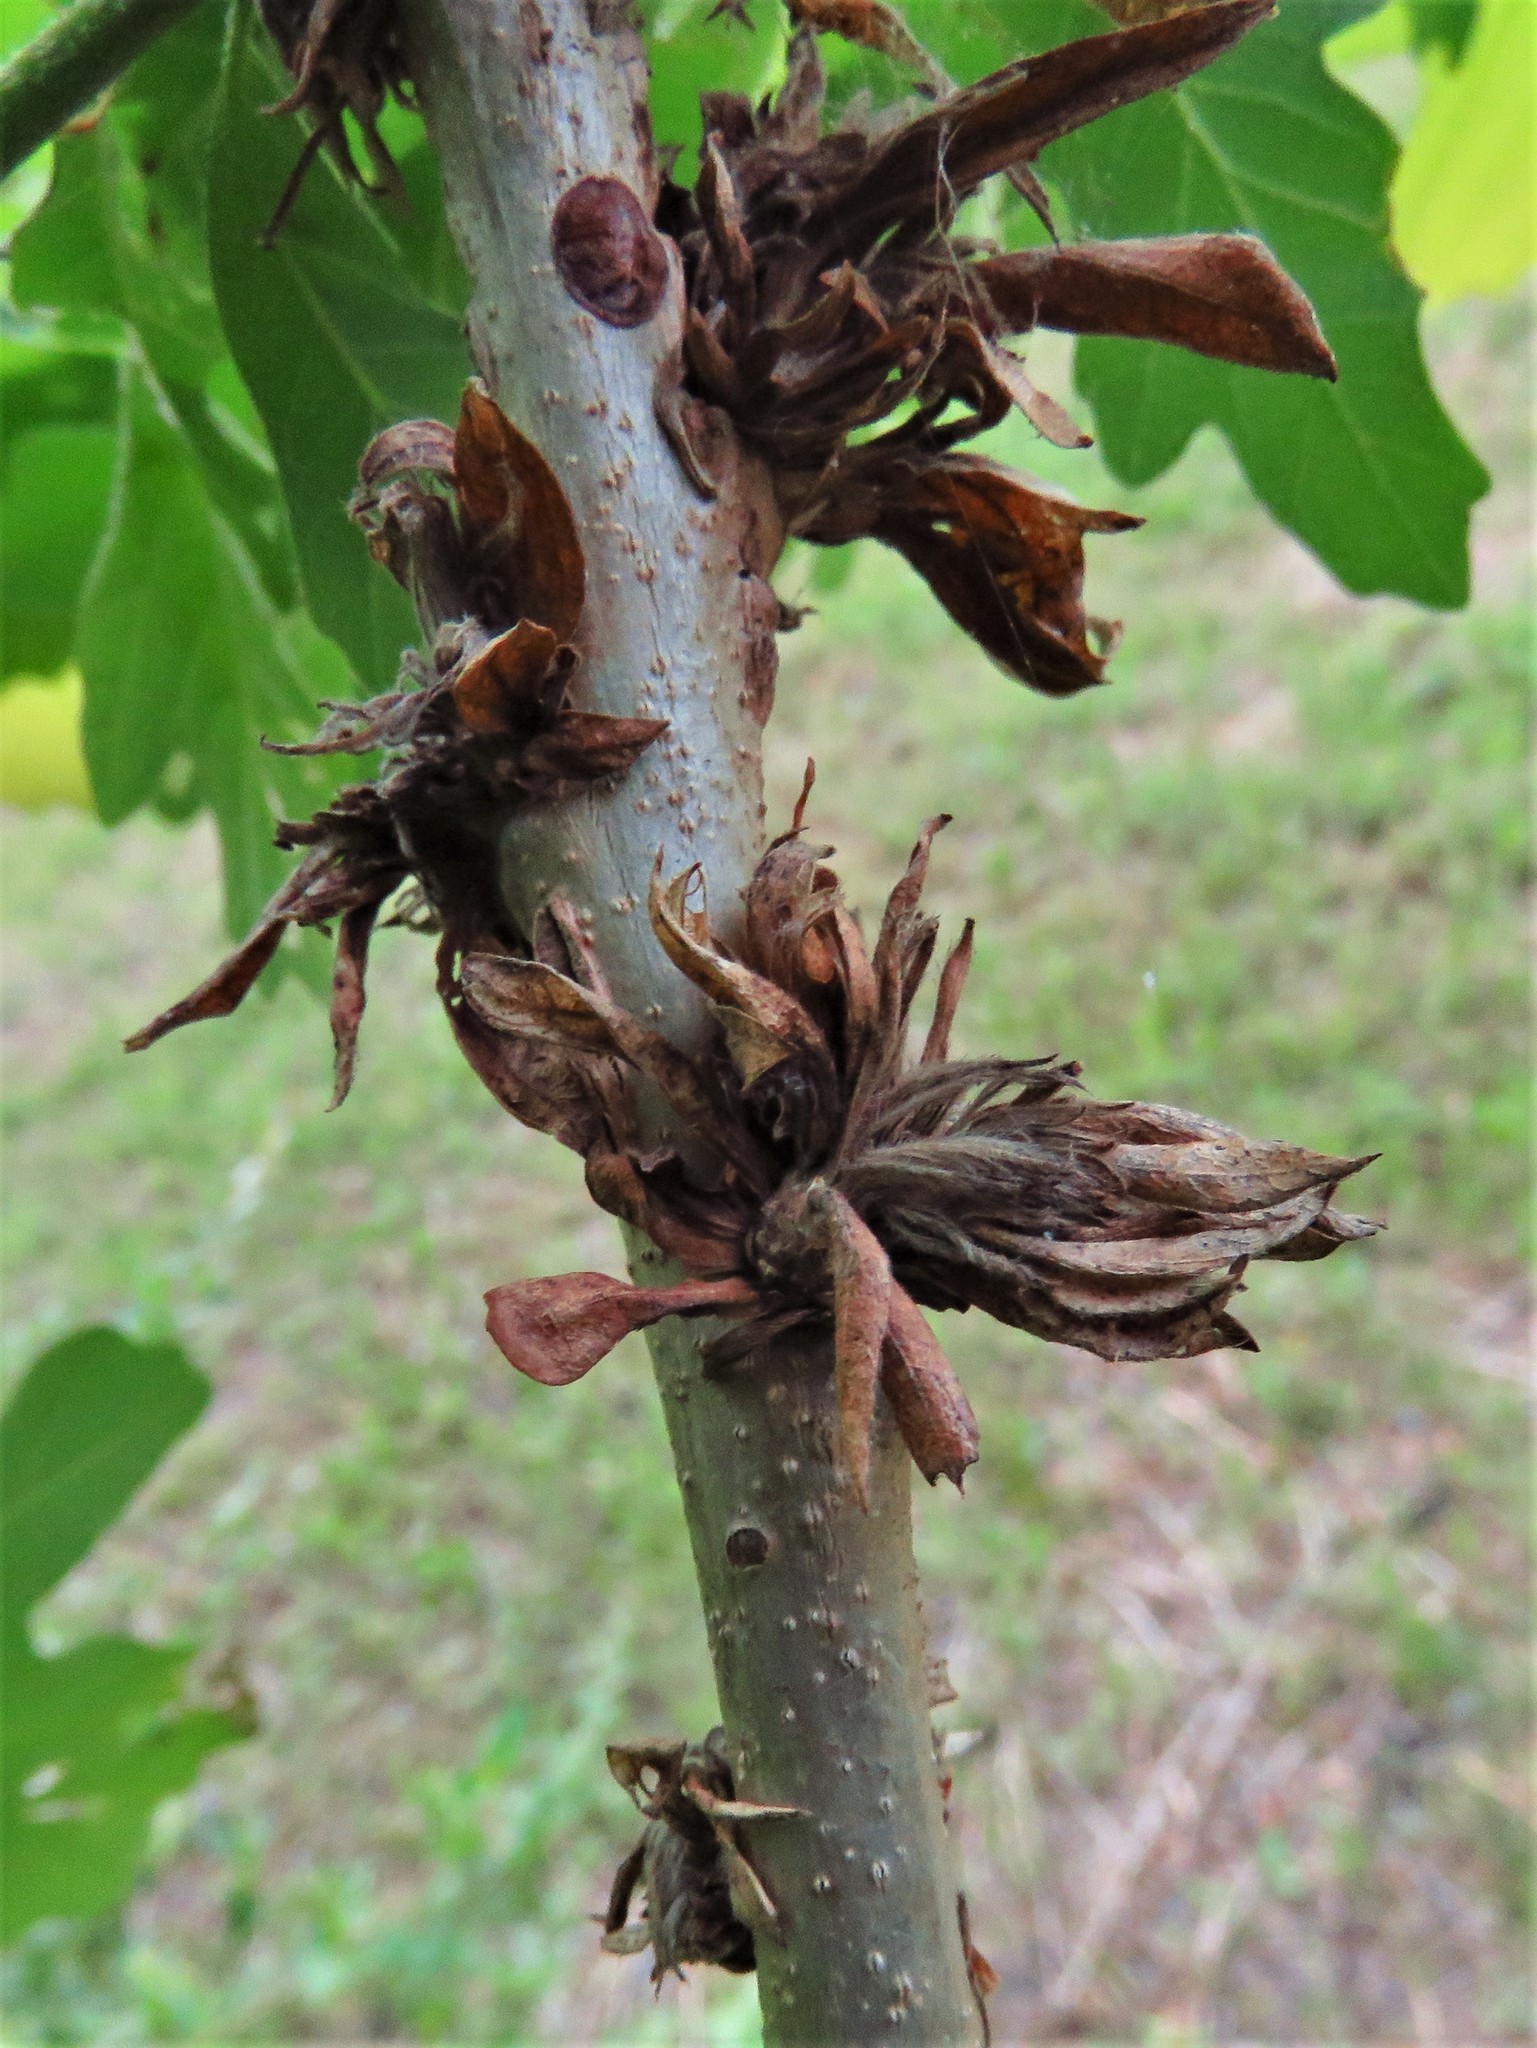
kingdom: Animalia
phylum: Arthropoda
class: Insecta
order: Hymenoptera
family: Cynipidae
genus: Andricus
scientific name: Andricus
